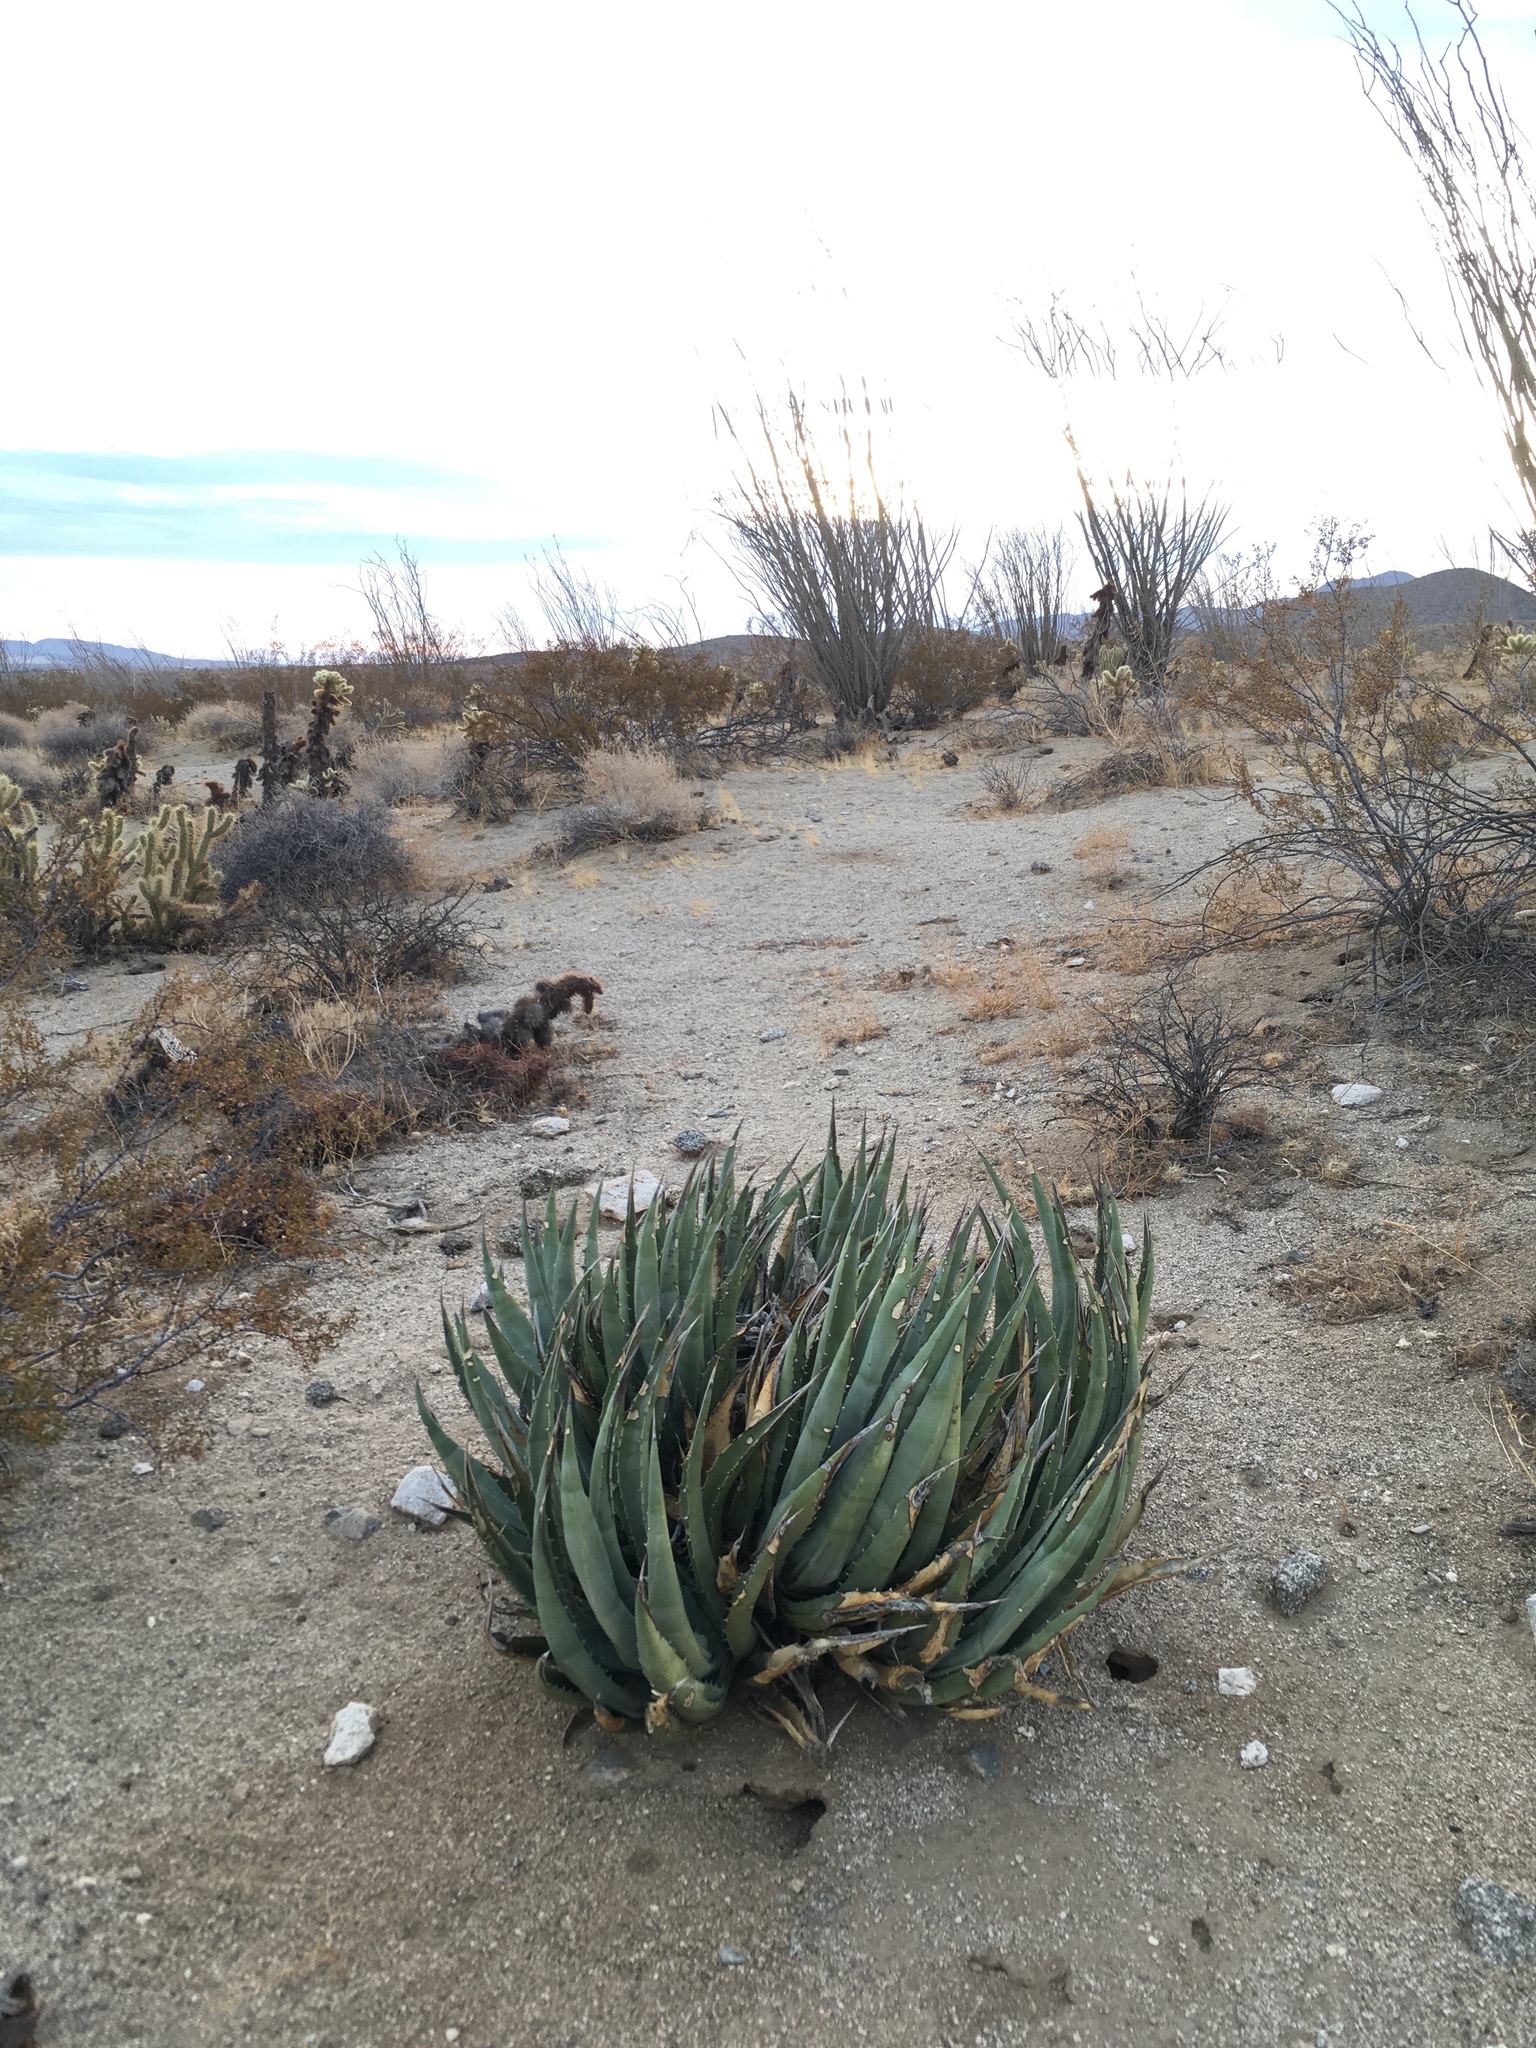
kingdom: Plantae
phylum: Tracheophyta
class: Liliopsida
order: Asparagales
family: Asparagaceae
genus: Agave
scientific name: Agave deserti
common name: Desert agave
